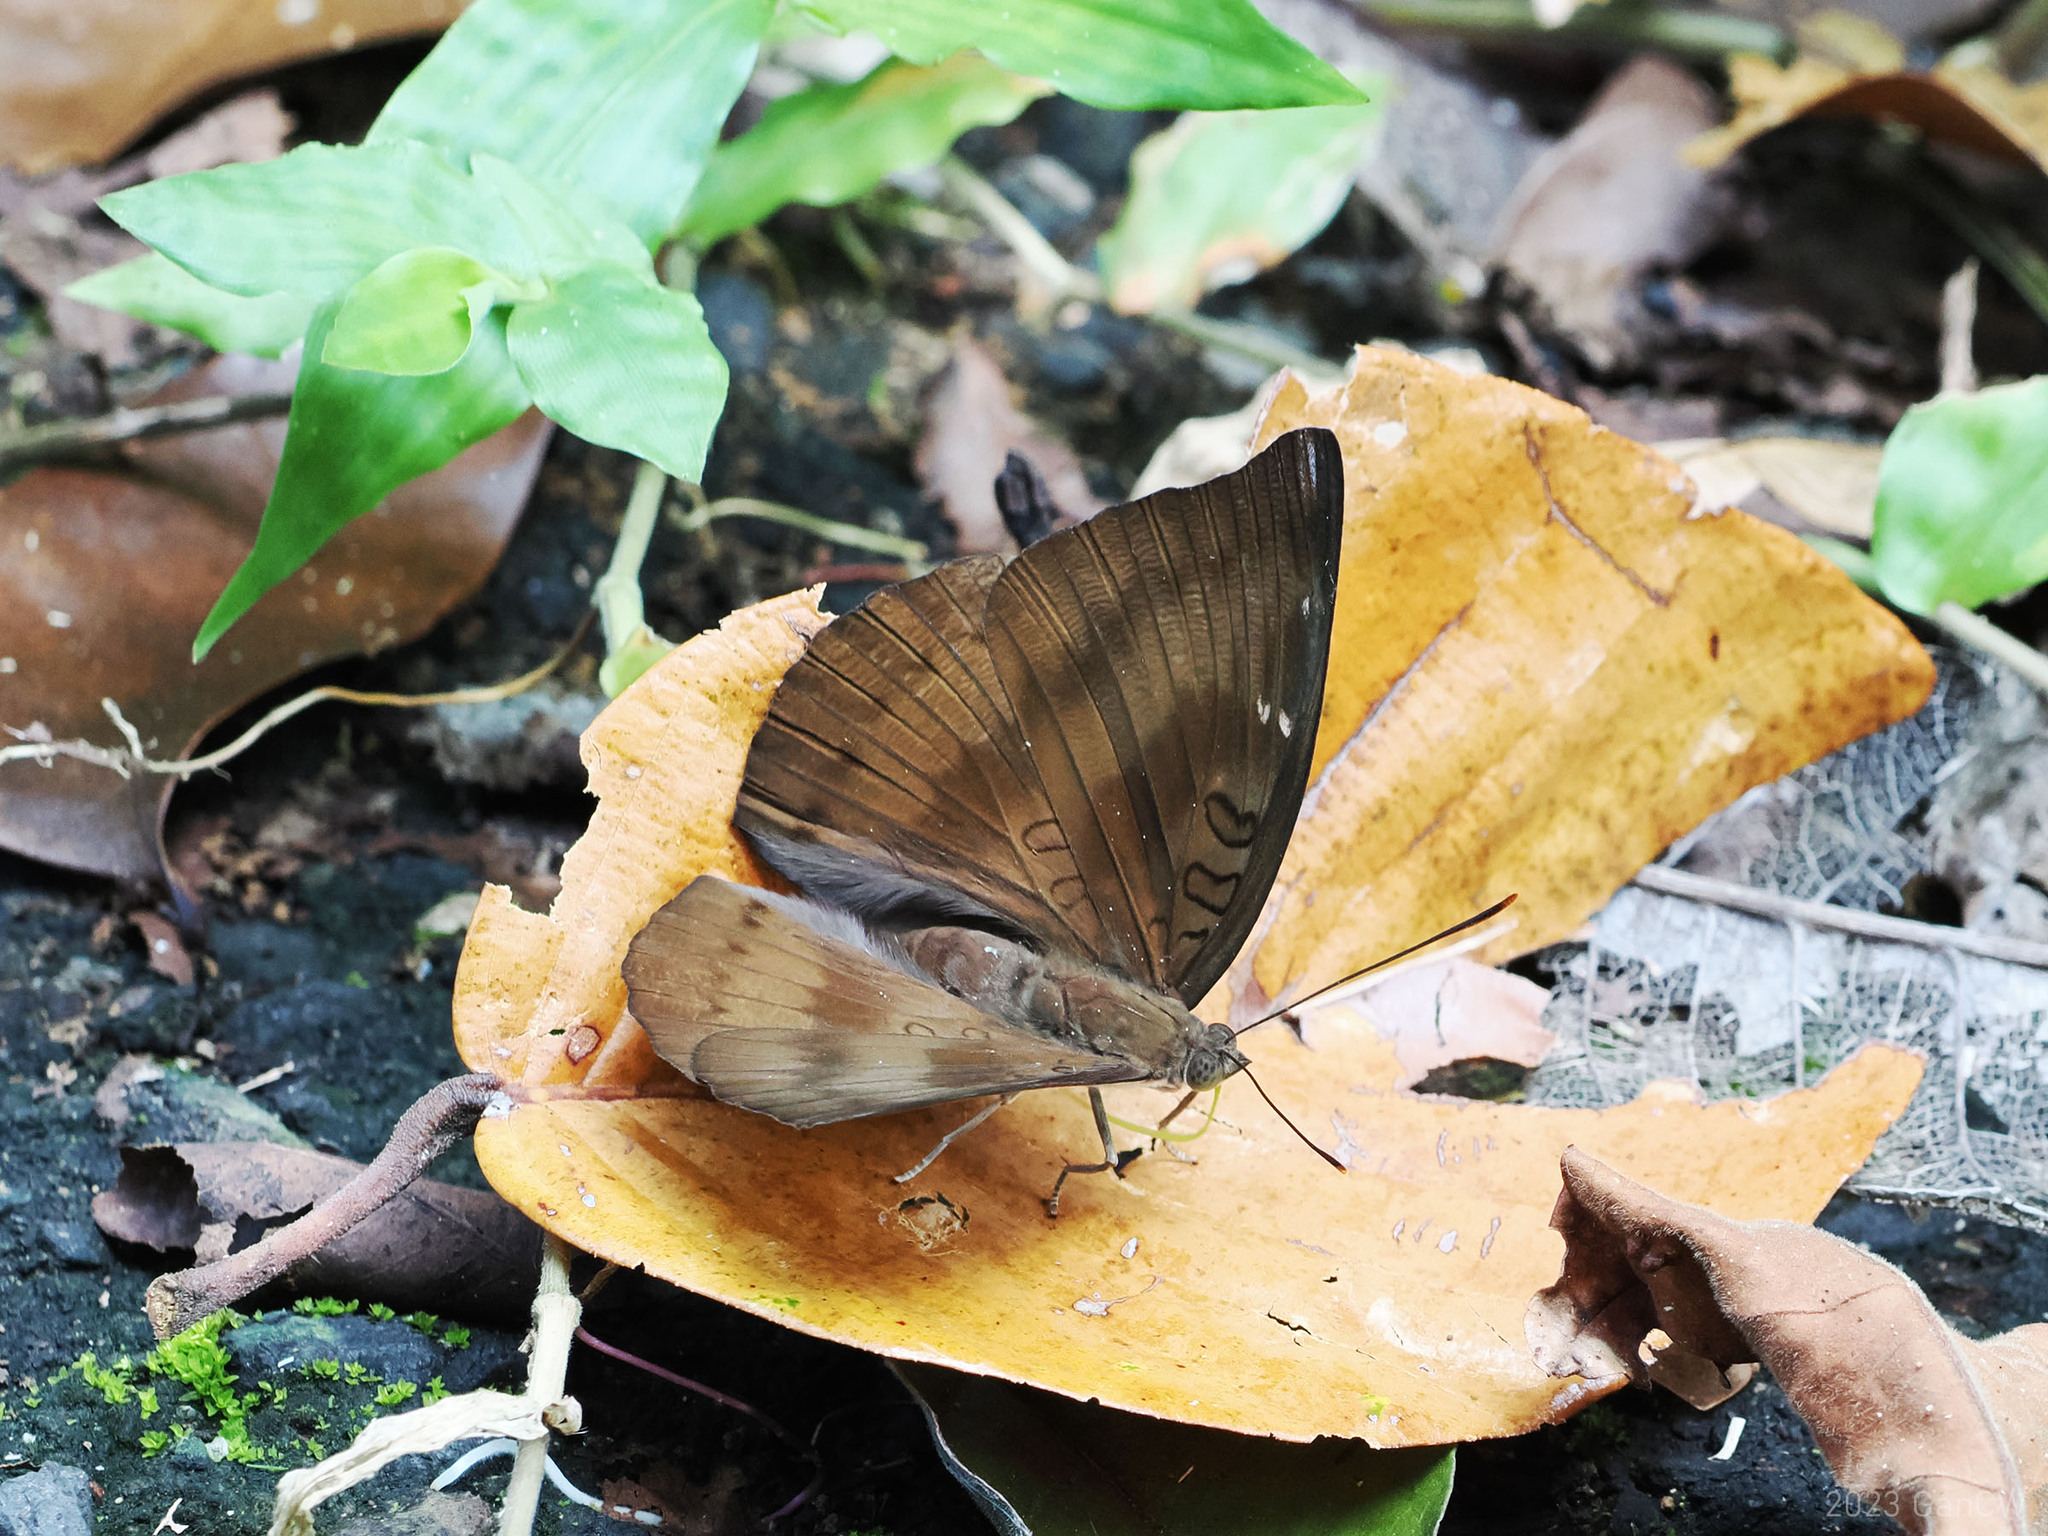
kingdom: Animalia
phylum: Arthropoda
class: Insecta
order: Lepidoptera
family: Nymphalidae
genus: Euthalia
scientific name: Euthalia alpheda
